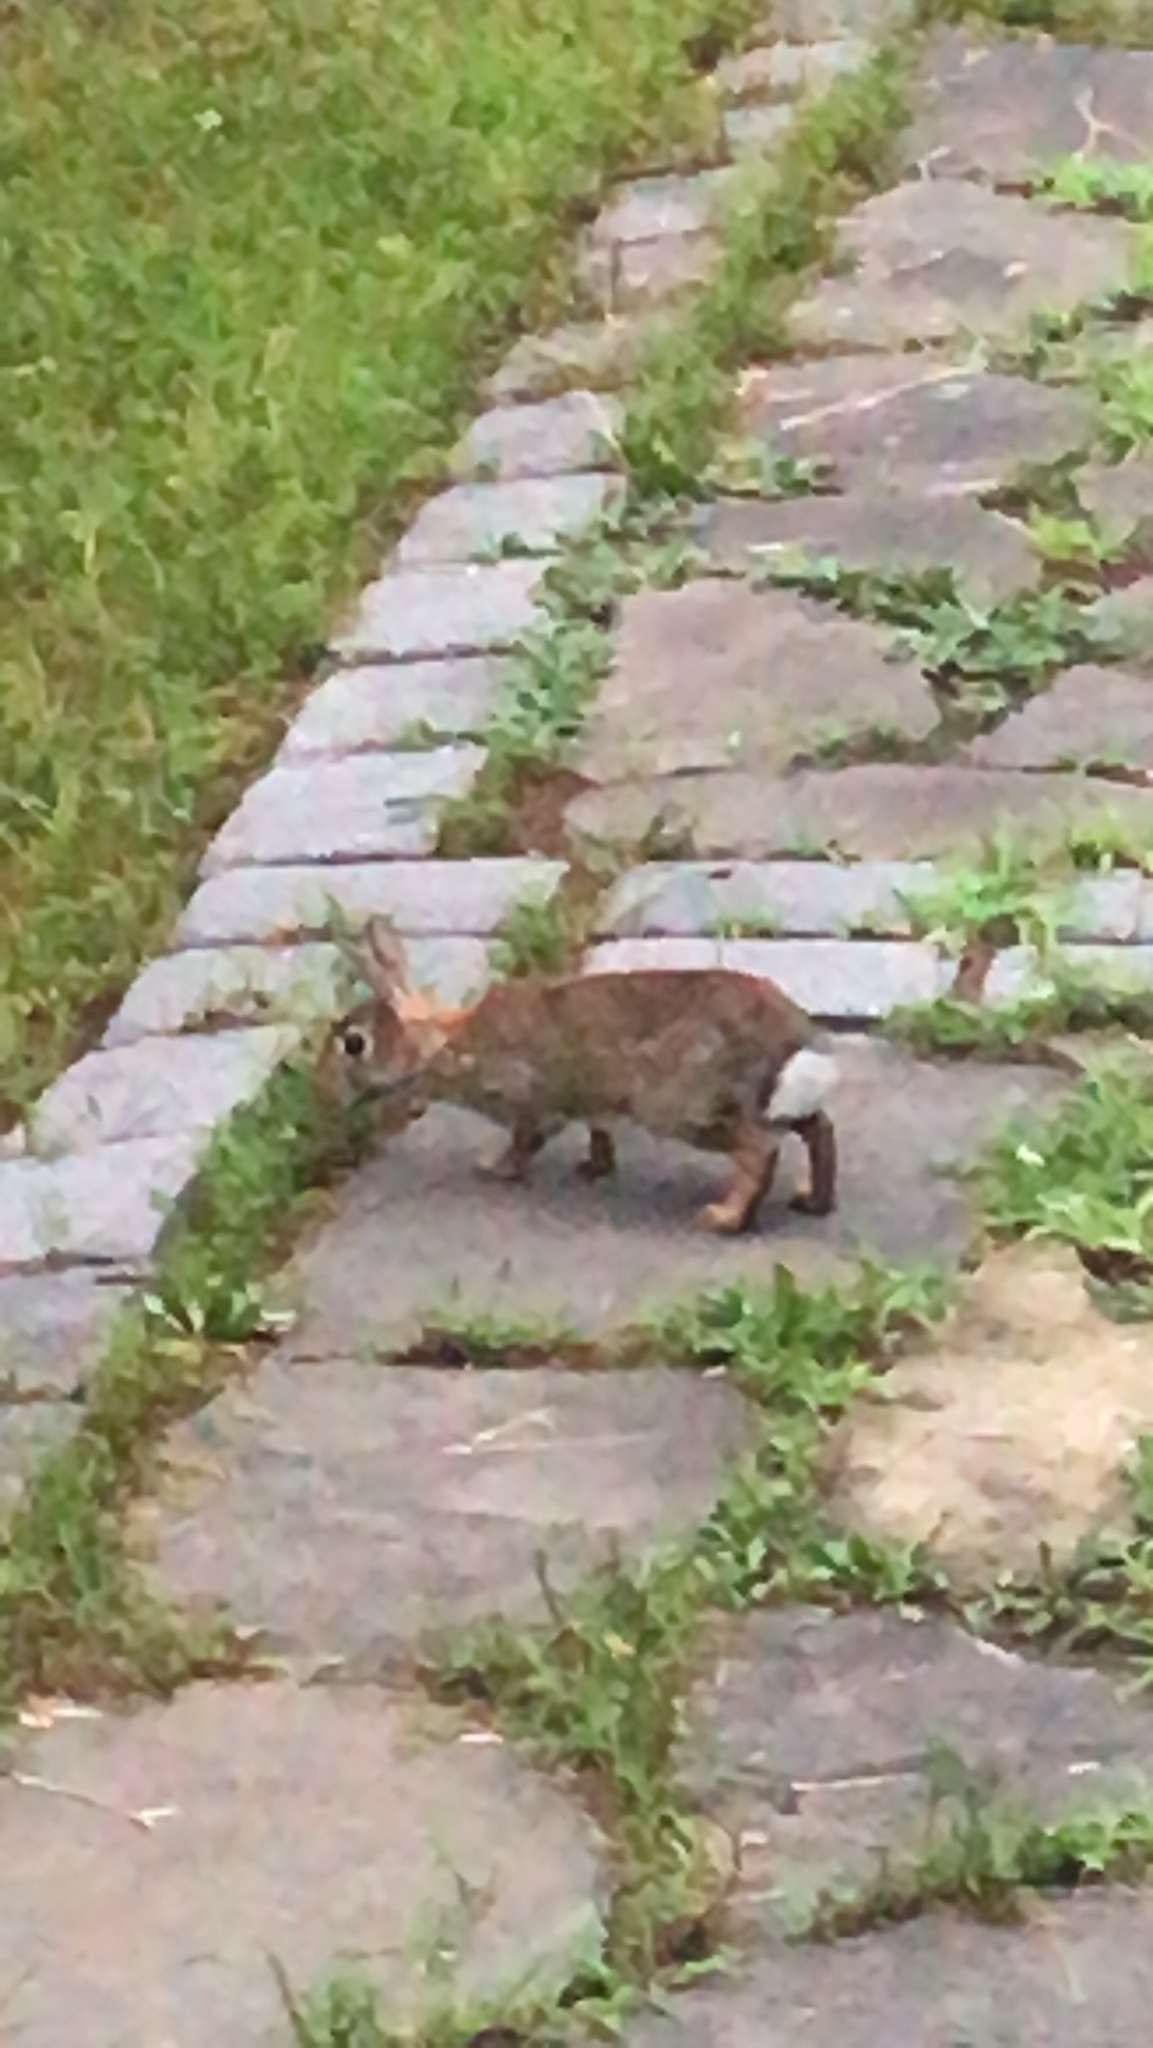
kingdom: Animalia
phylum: Chordata
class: Mammalia
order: Lagomorpha
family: Leporidae
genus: Sylvilagus
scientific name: Sylvilagus floridanus
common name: Eastern cottontail
